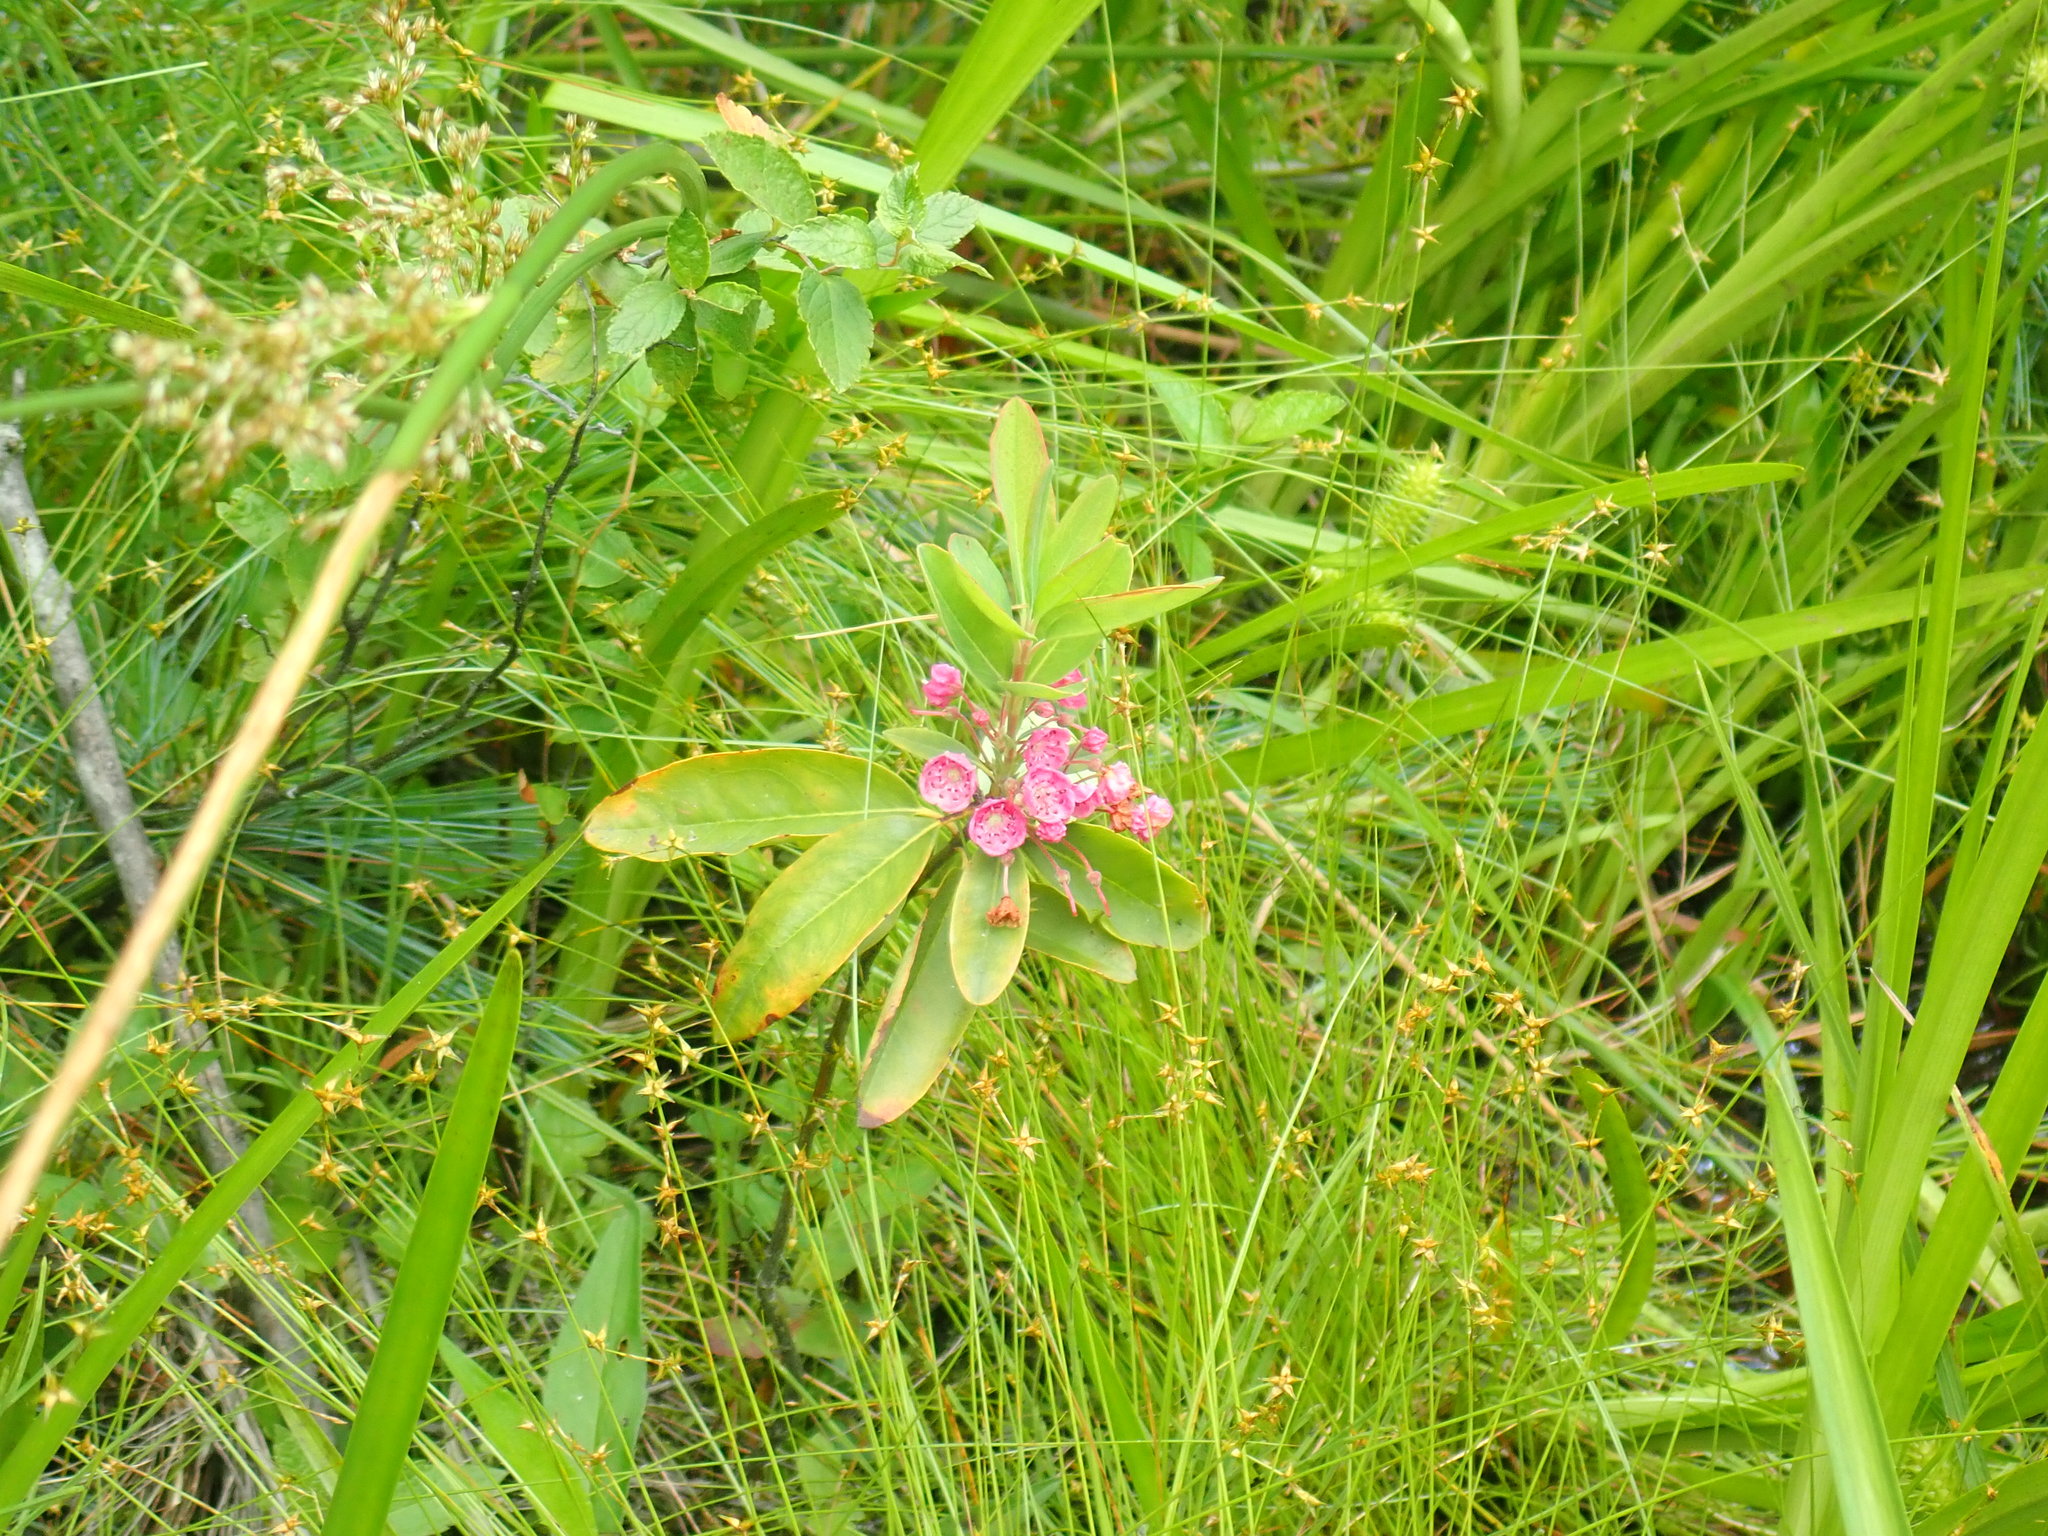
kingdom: Plantae
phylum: Tracheophyta
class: Magnoliopsida
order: Ericales
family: Ericaceae
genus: Kalmia
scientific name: Kalmia angustifolia
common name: Sheep-laurel
